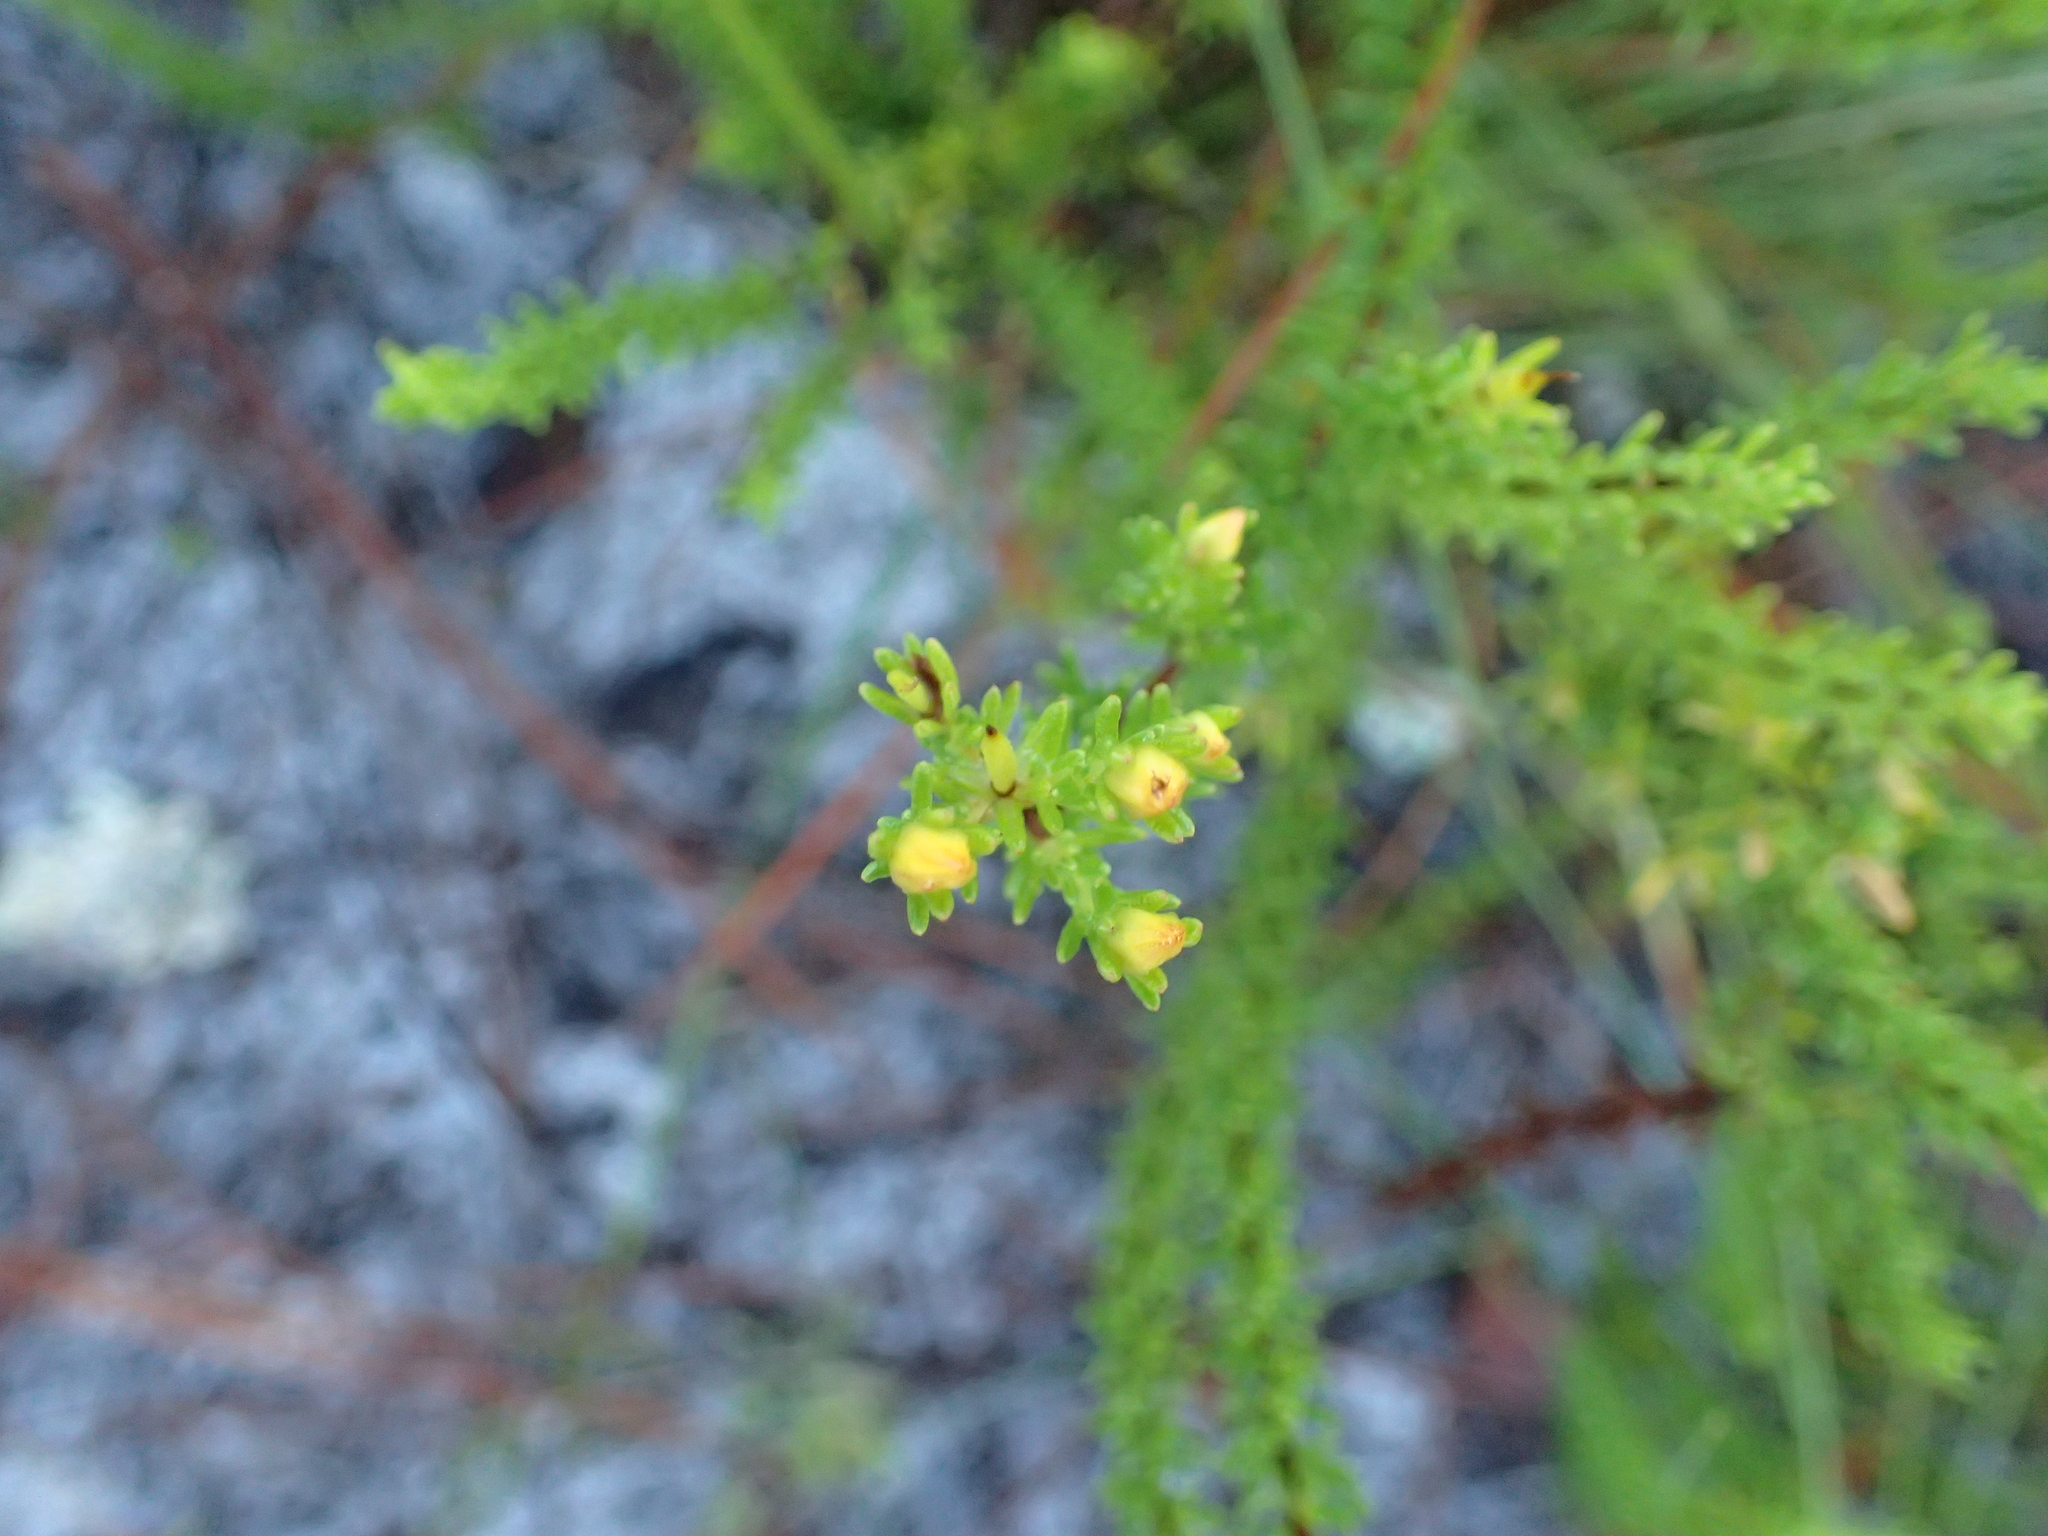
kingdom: Plantae
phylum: Tracheophyta
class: Magnoliopsida
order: Malpighiales
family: Hypericaceae
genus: Hypericum
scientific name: Hypericum tenuifolium
